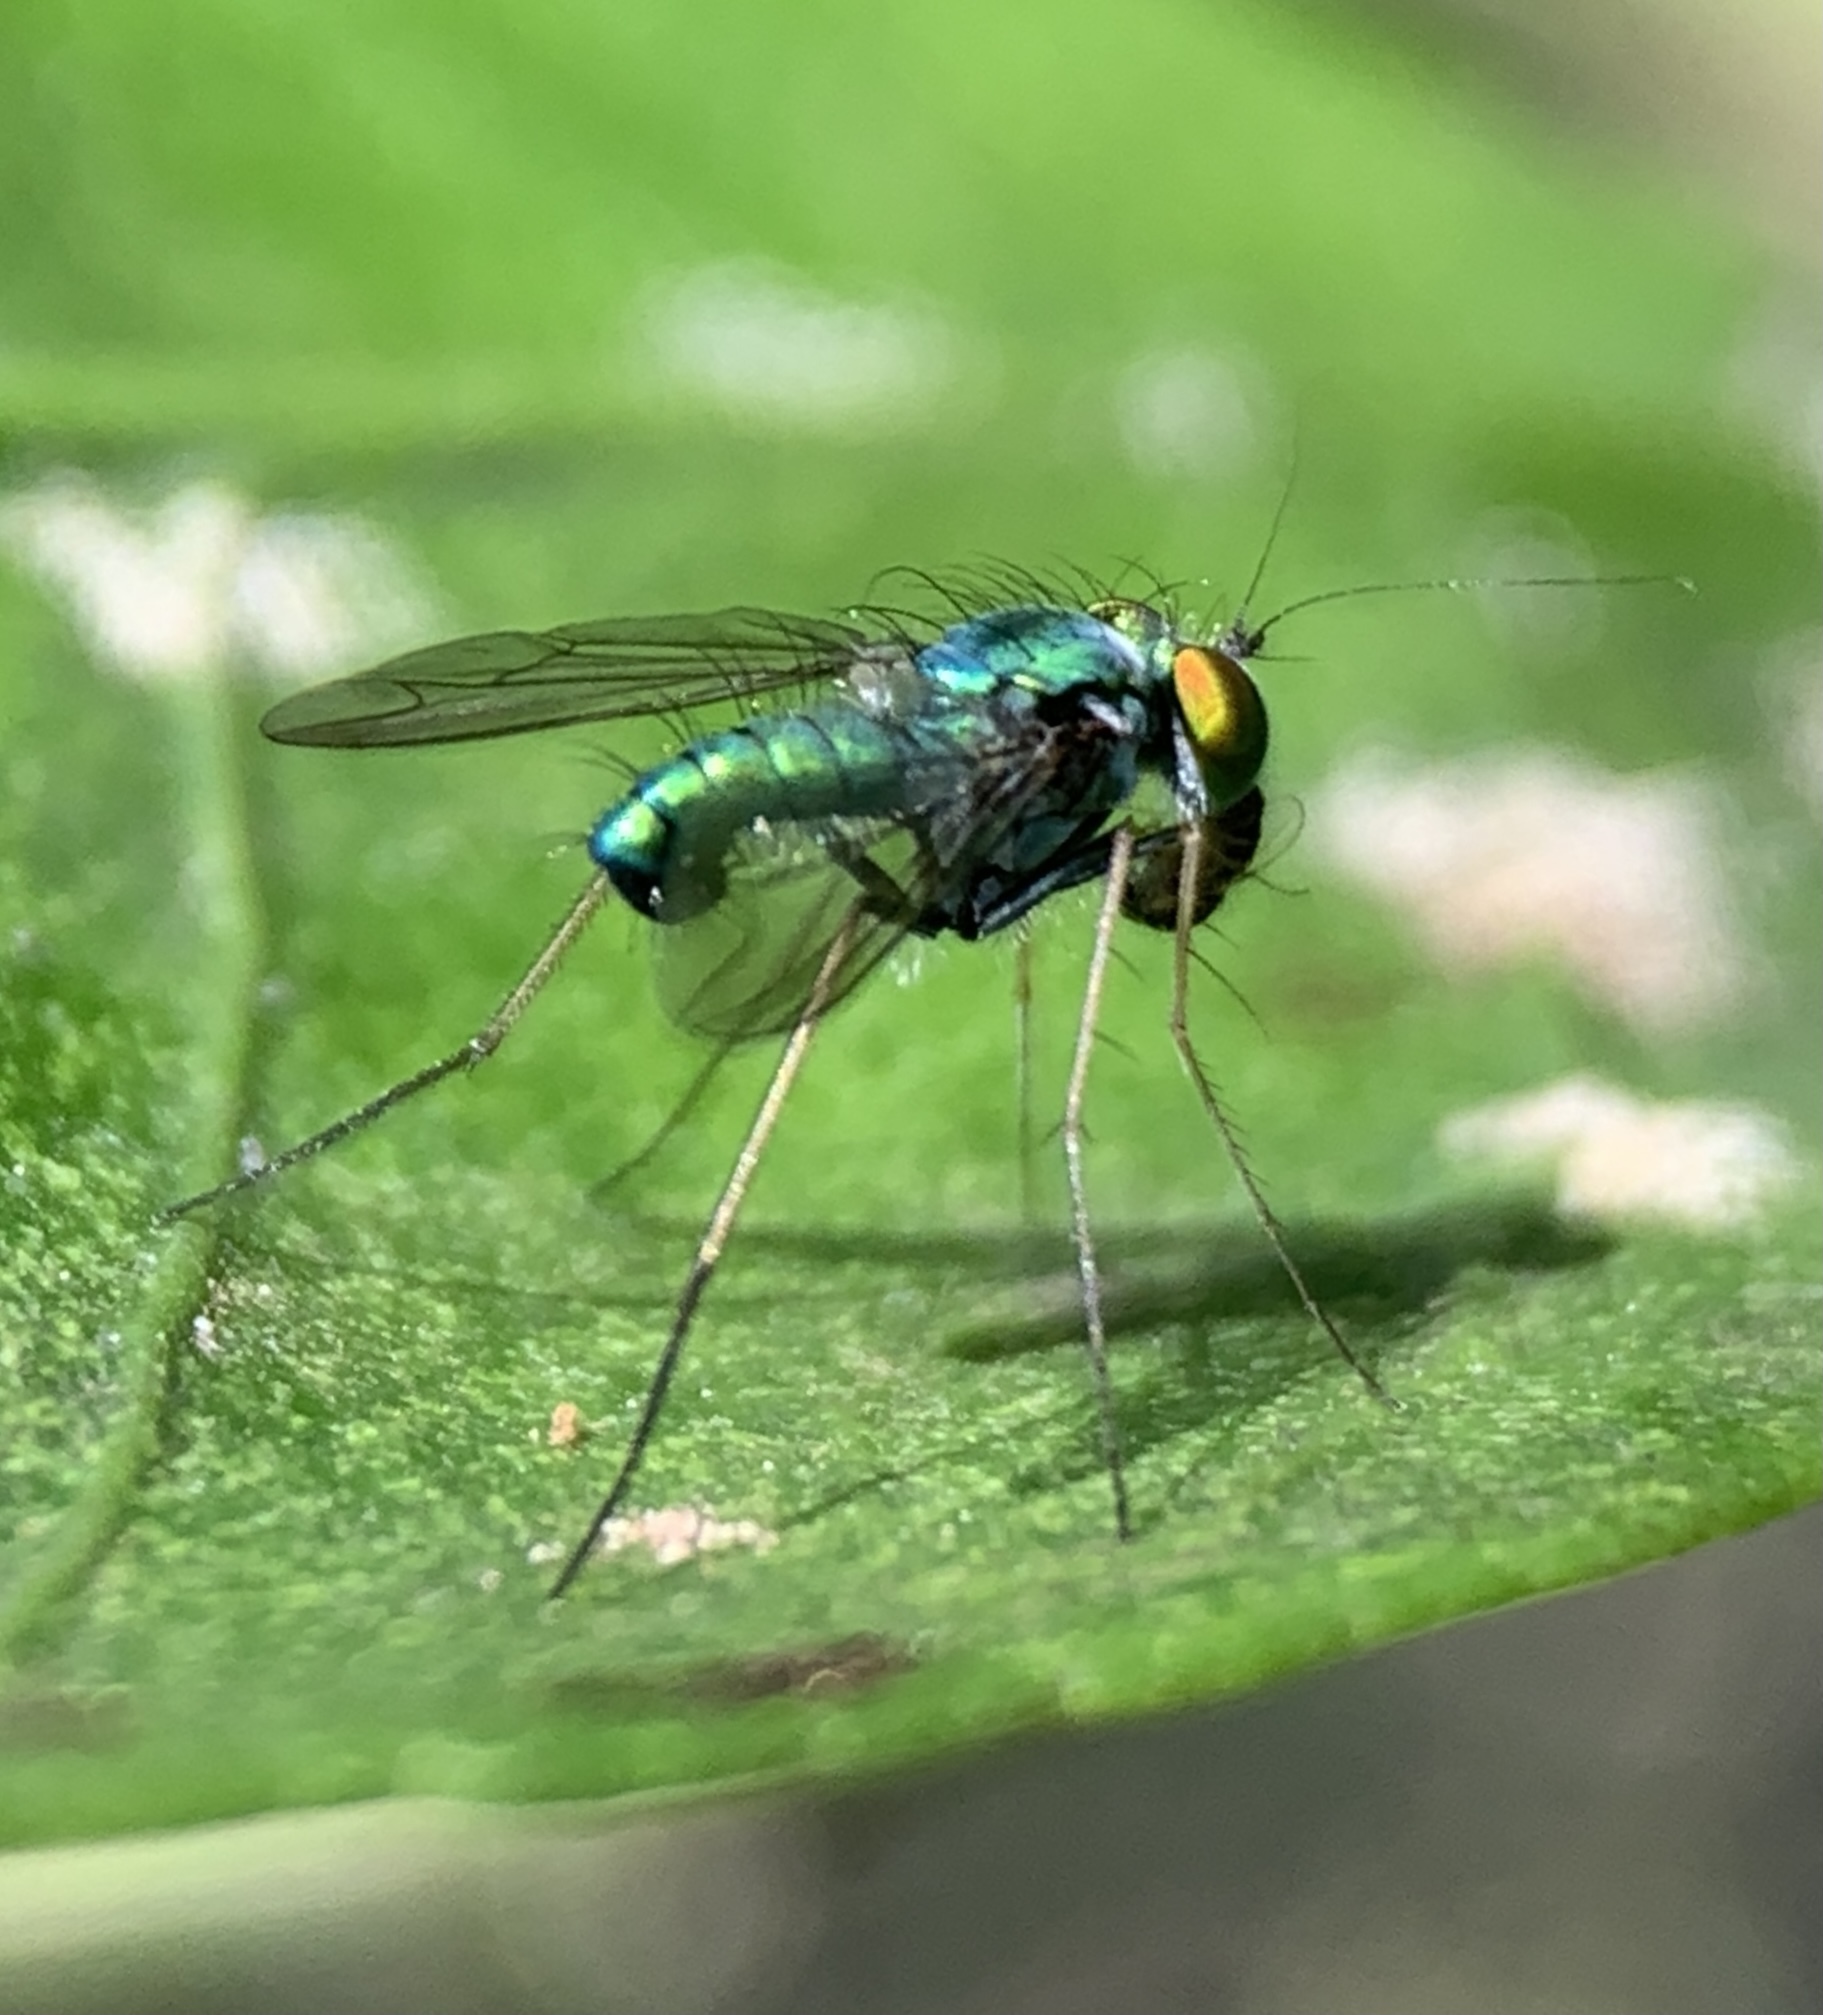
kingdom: Animalia
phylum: Arthropoda
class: Insecta
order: Diptera
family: Dolichopodidae
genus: Condylostylus
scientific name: Condylostylus crinitus
